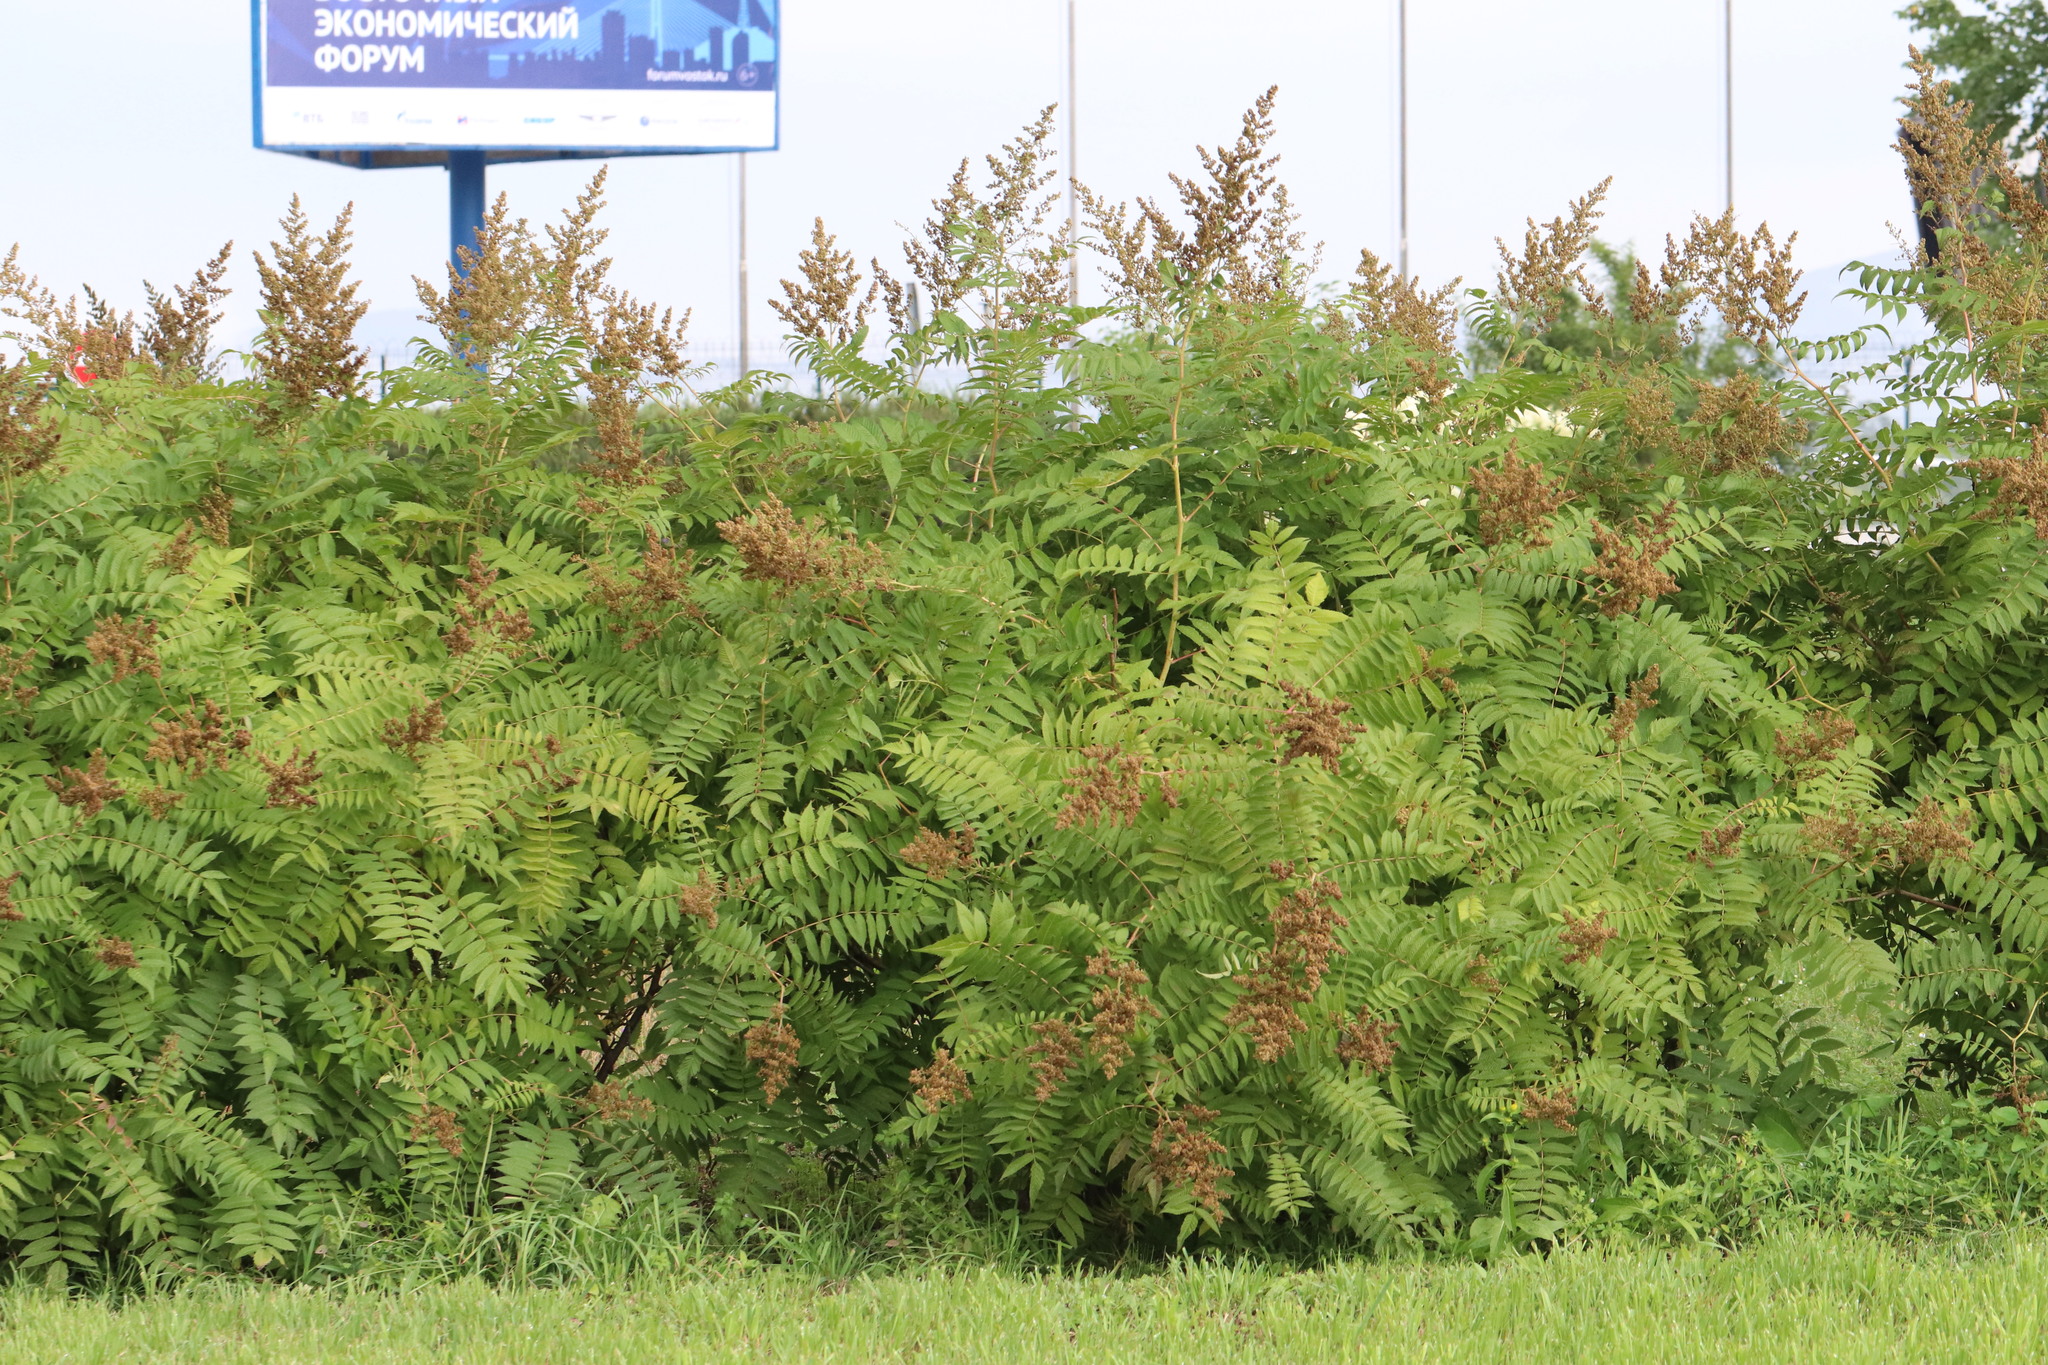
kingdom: Plantae
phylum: Tracheophyta
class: Magnoliopsida
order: Rosales
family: Rosaceae
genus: Sorbaria
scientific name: Sorbaria sorbifolia
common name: False spiraea
